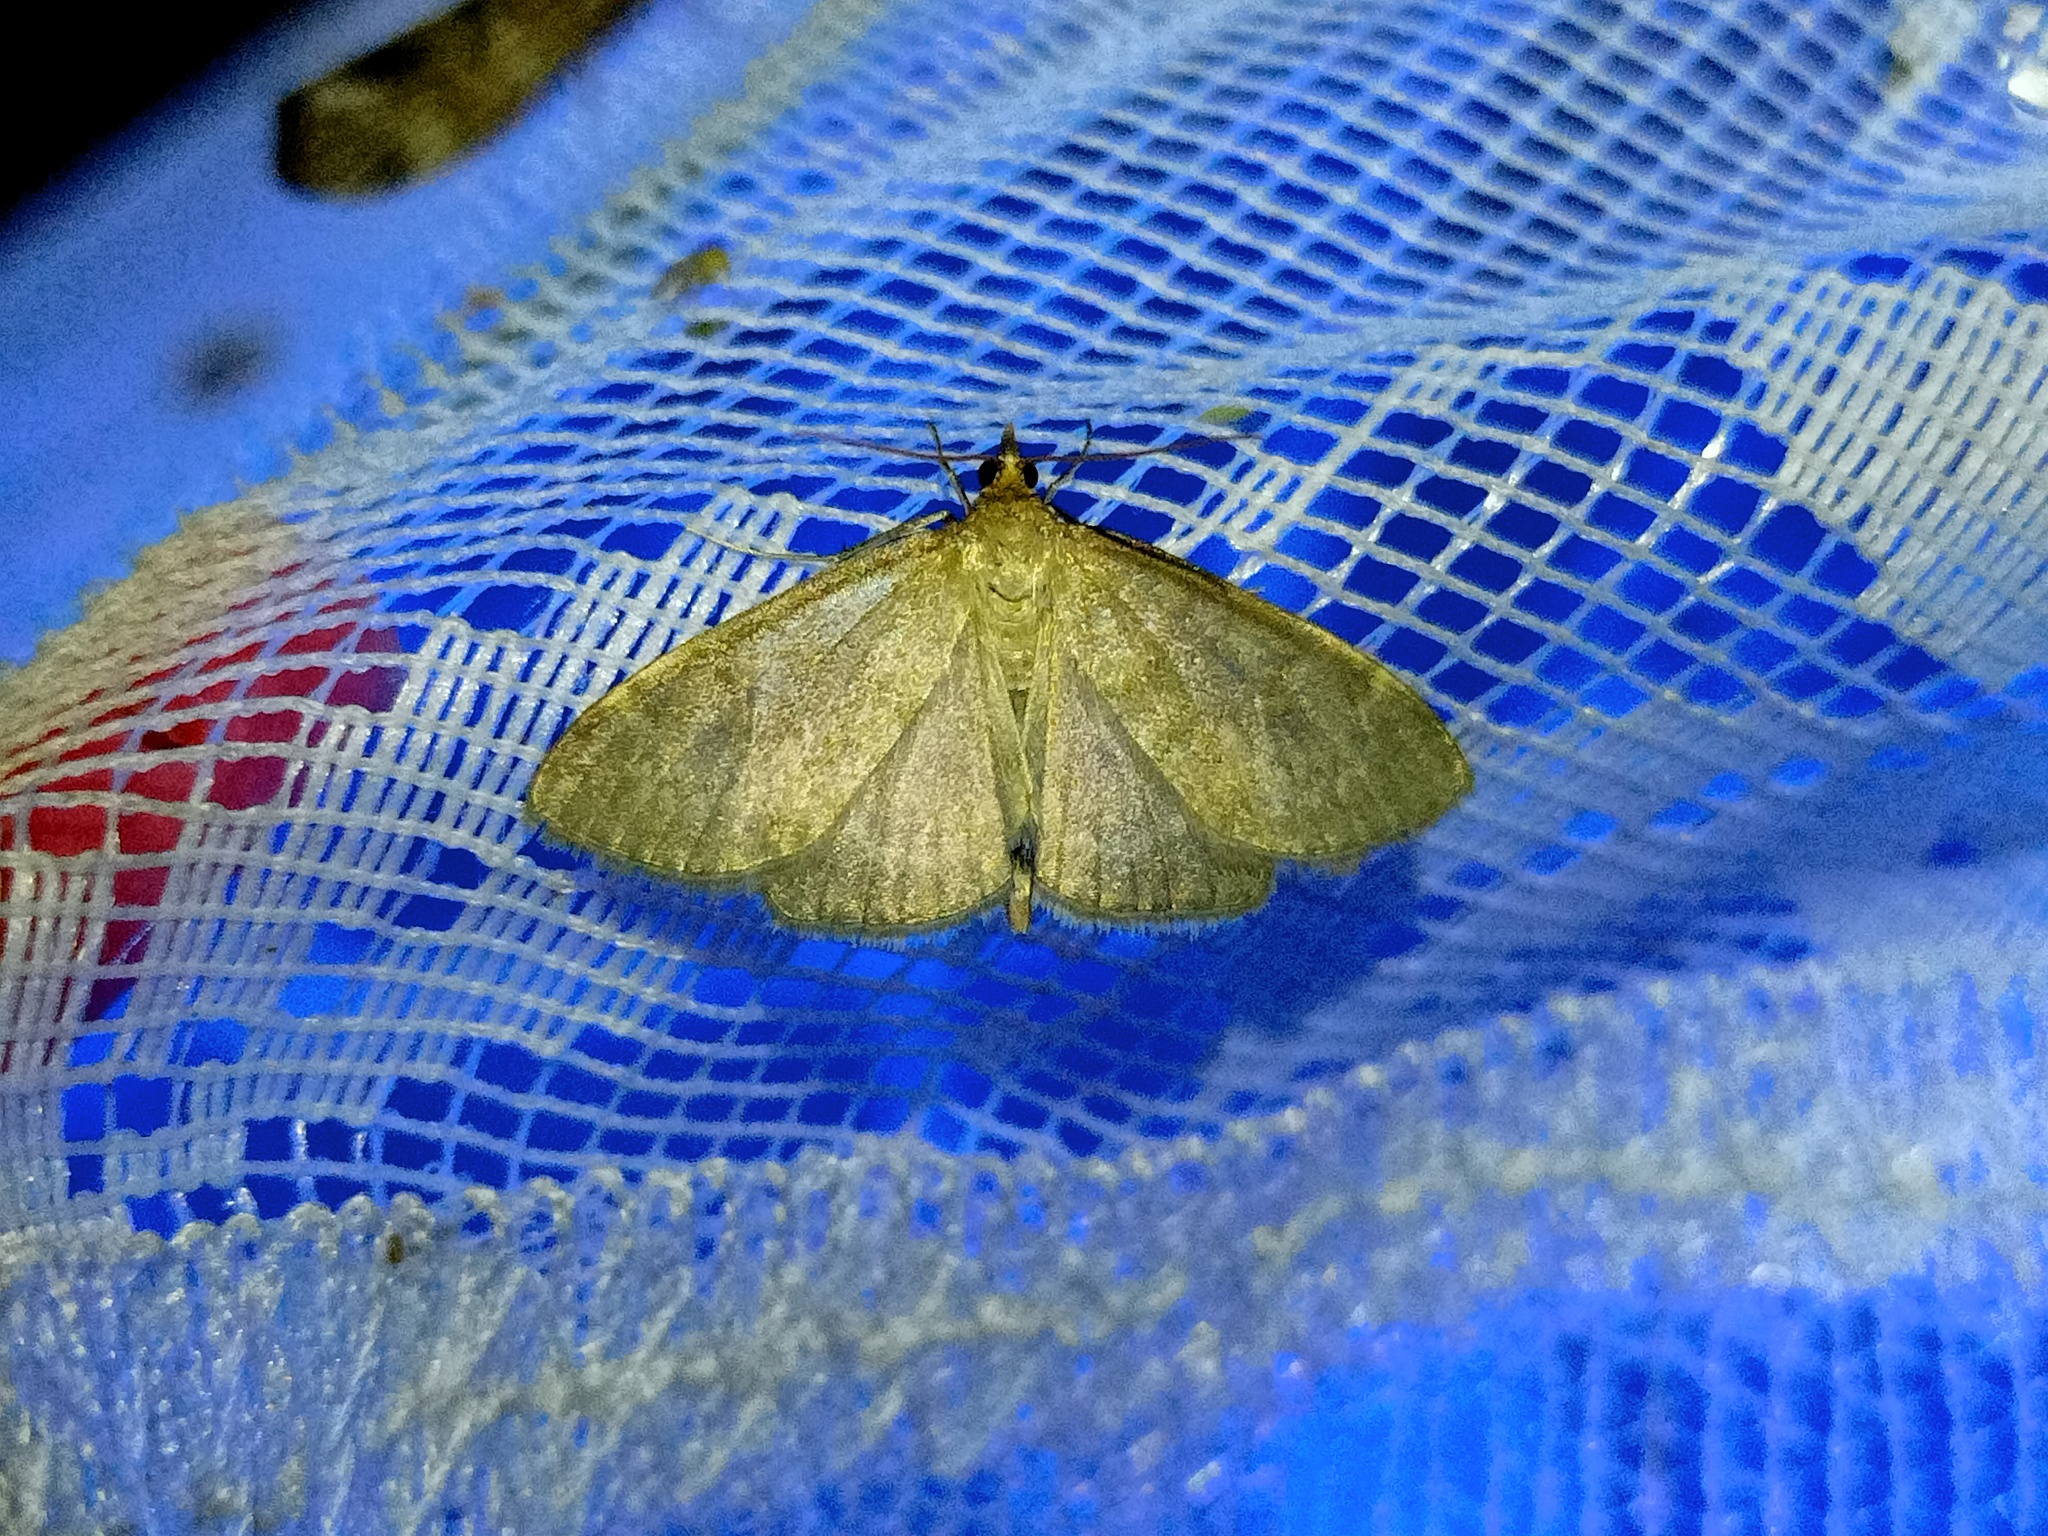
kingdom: Animalia
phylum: Arthropoda
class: Insecta
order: Lepidoptera
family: Crambidae
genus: Anania
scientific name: Anania fuscalis
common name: Cinerous pearl
